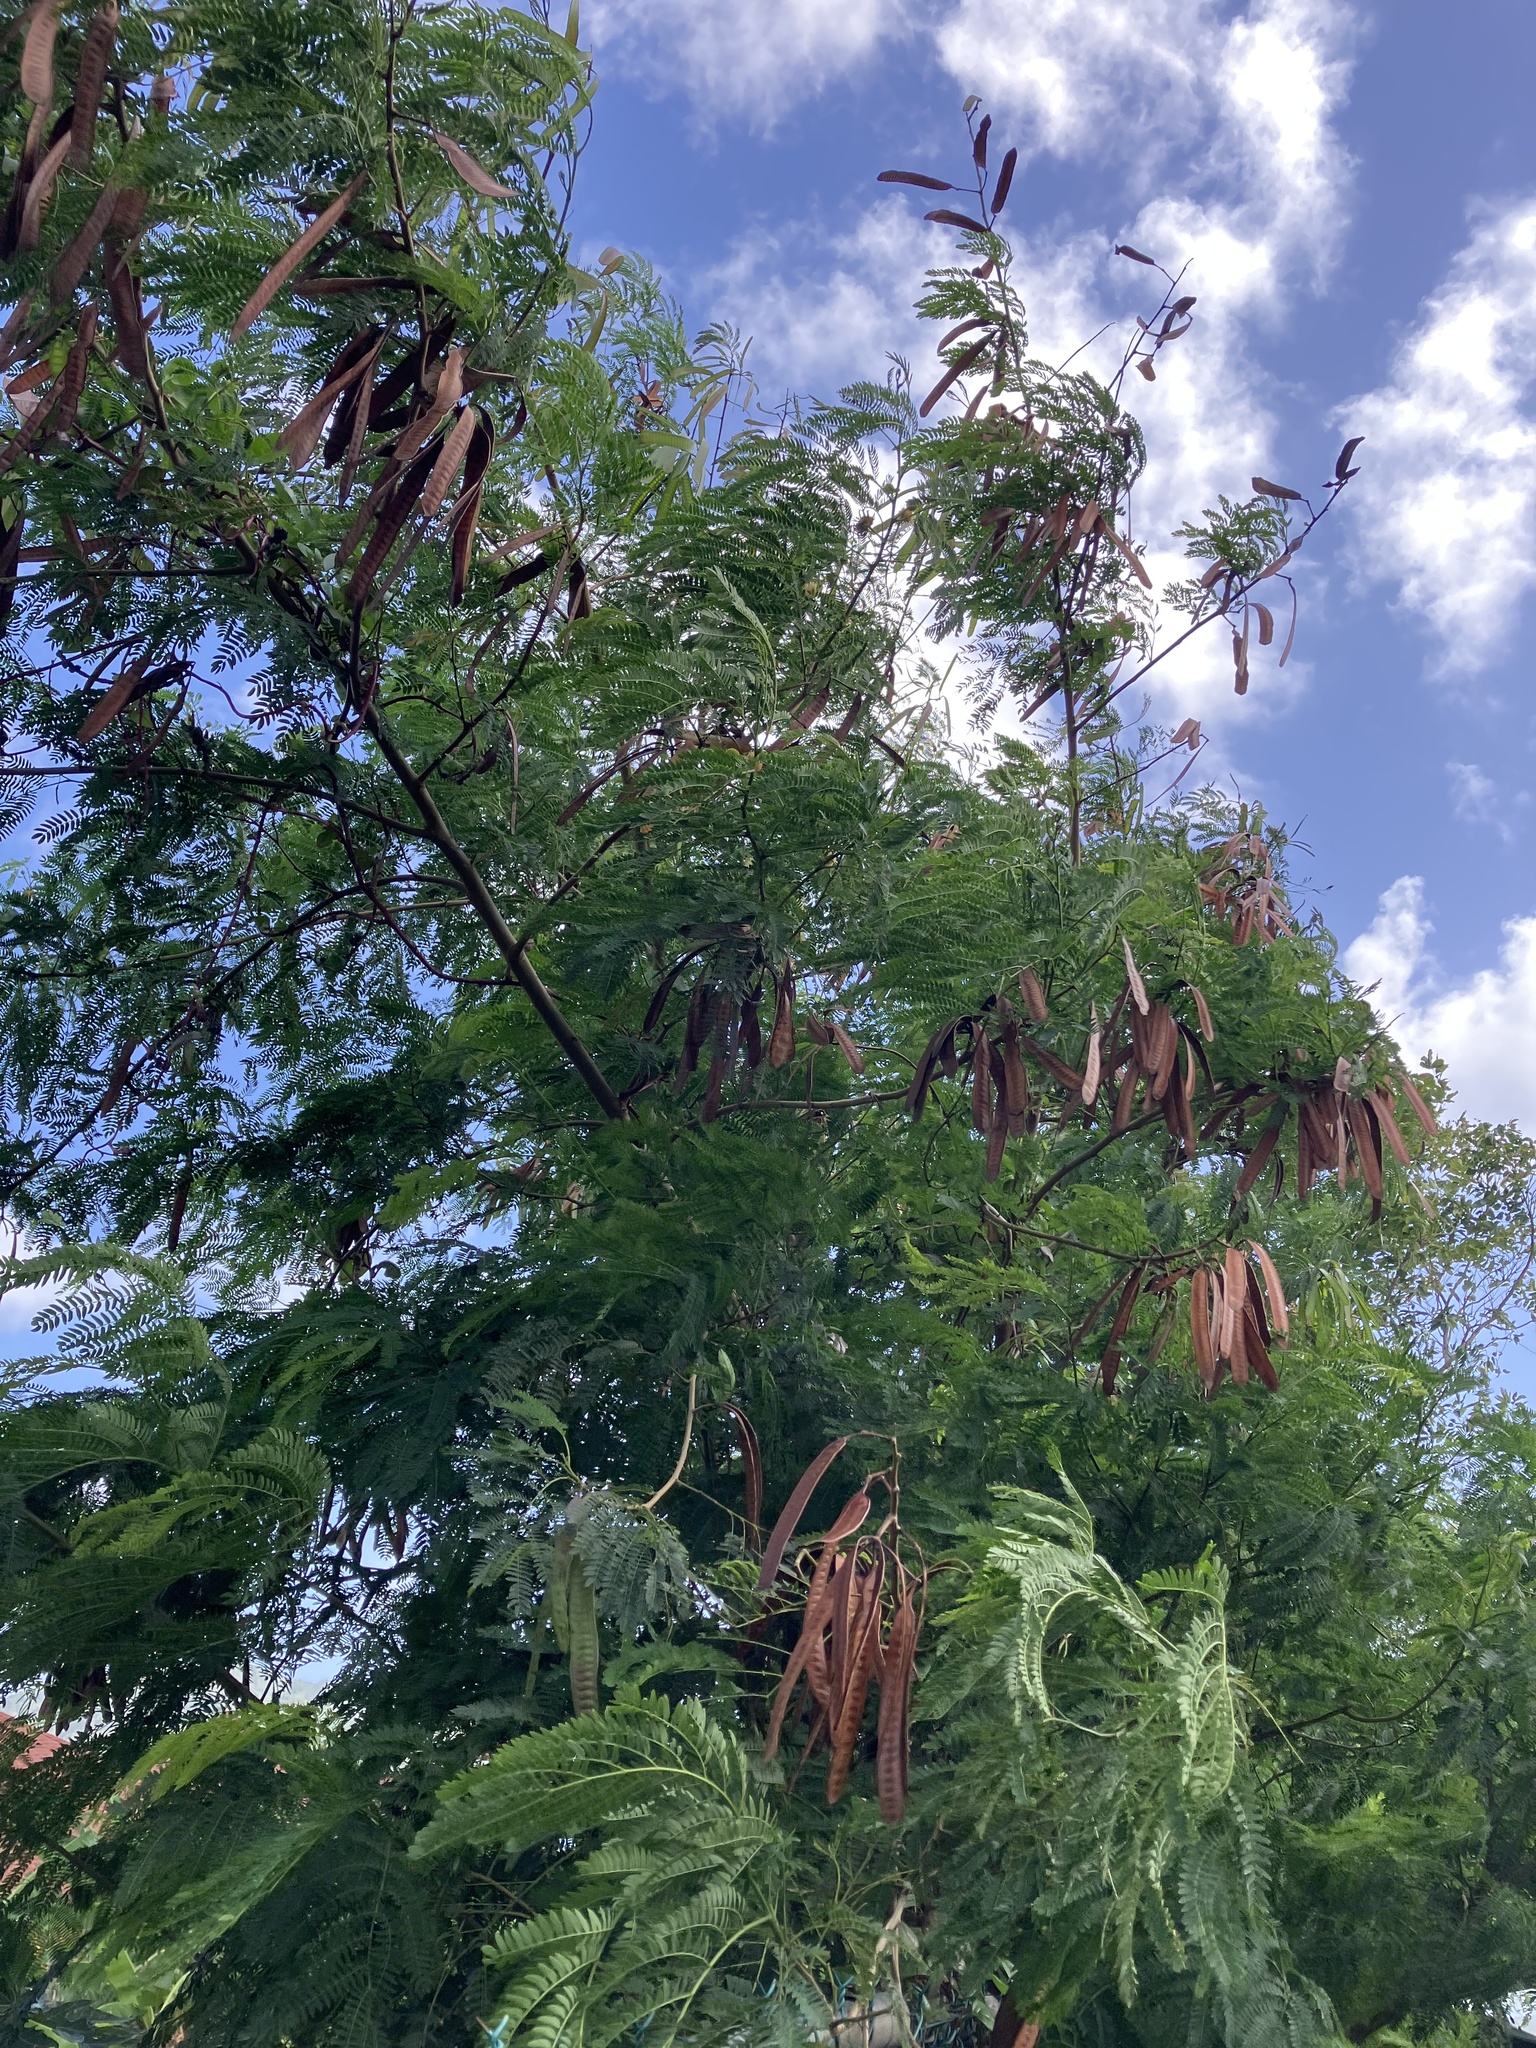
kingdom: Plantae
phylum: Tracheophyta
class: Magnoliopsida
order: Fabales
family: Fabaceae
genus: Leucaena
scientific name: Leucaena leucocephala
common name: White leadtree
